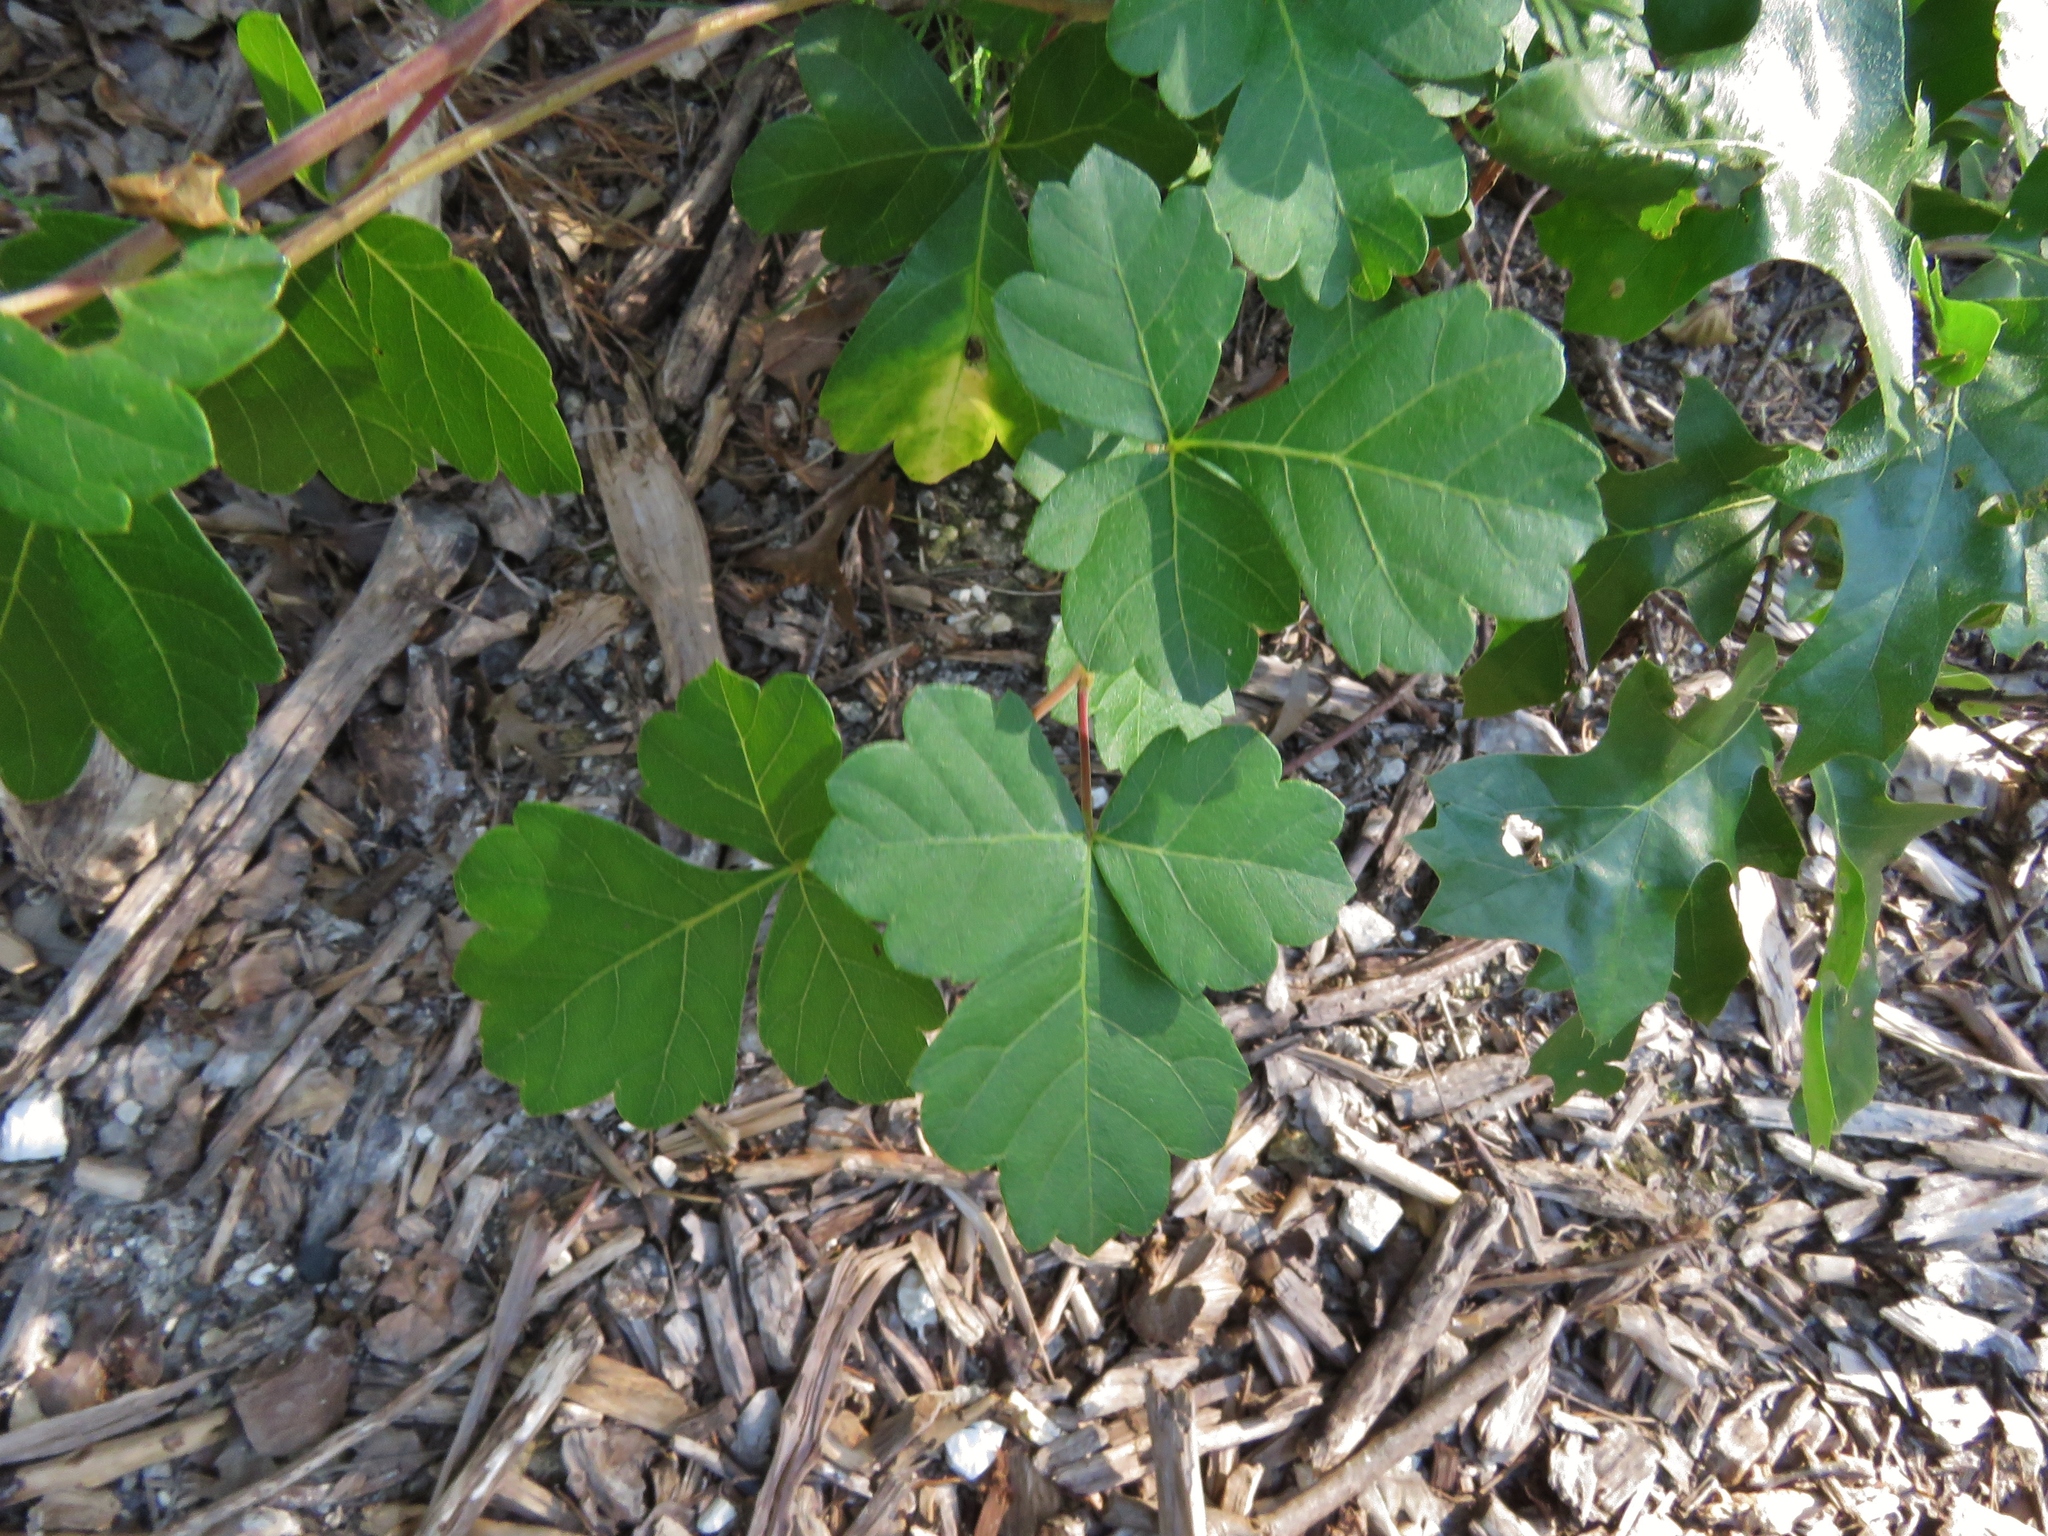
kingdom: Plantae
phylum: Tracheophyta
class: Magnoliopsida
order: Sapindales
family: Anacardiaceae
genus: Rhus
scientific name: Rhus aromatica
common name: Aromatic sumac
